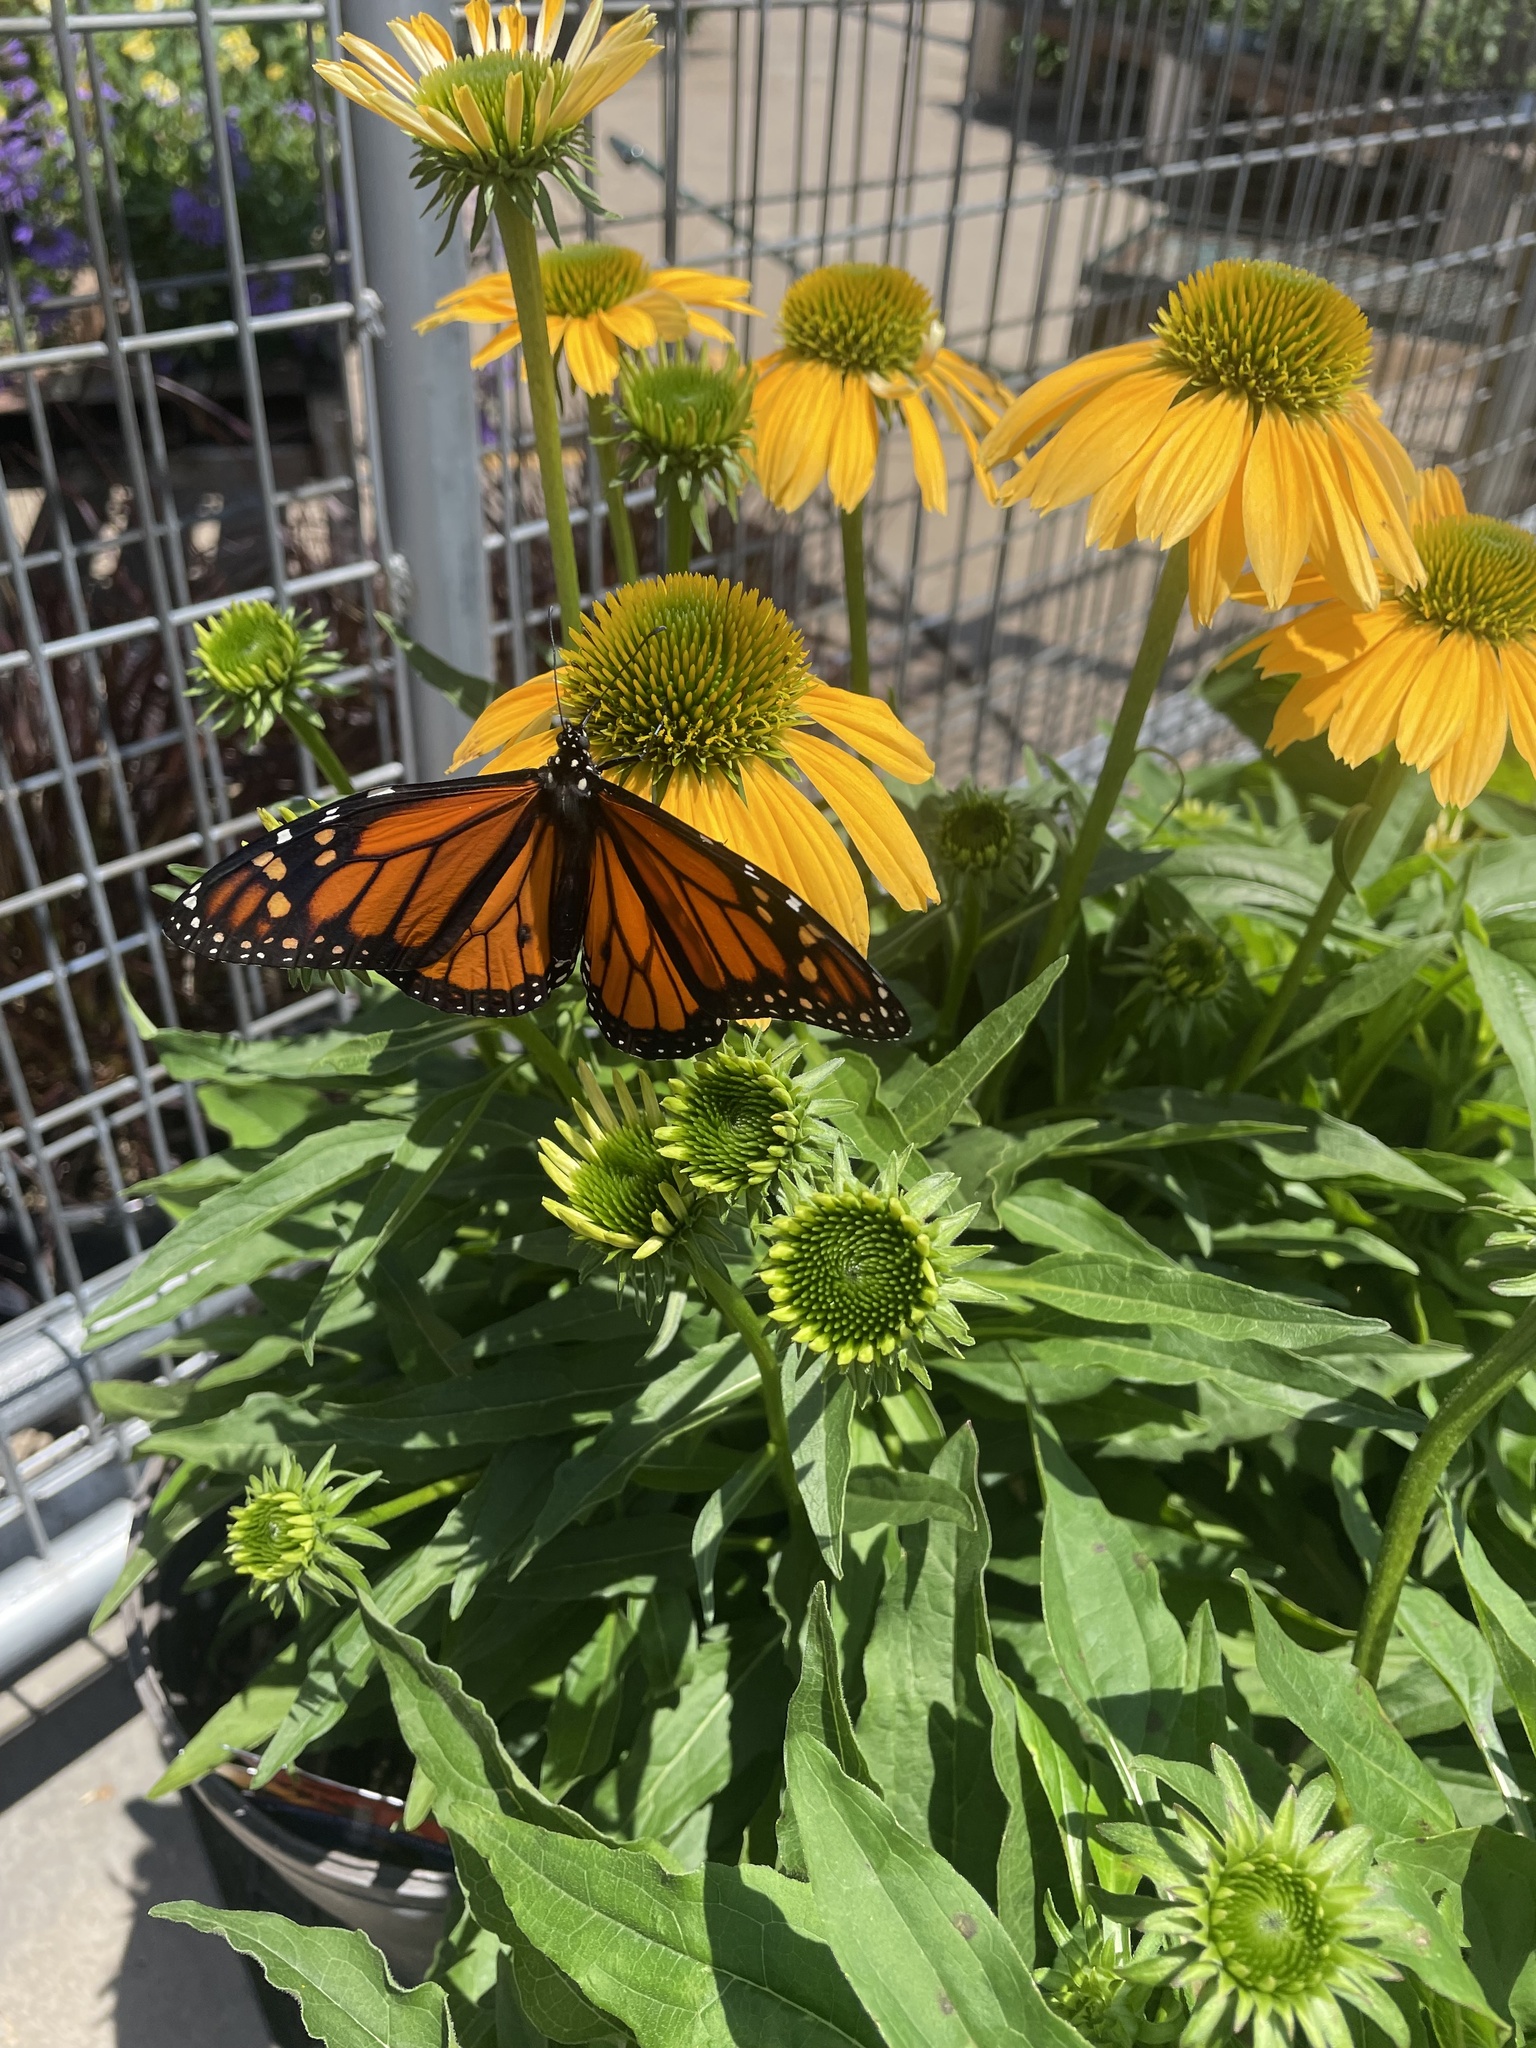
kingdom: Animalia
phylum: Arthropoda
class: Insecta
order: Lepidoptera
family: Nymphalidae
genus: Danaus
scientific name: Danaus plexippus
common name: Monarch
